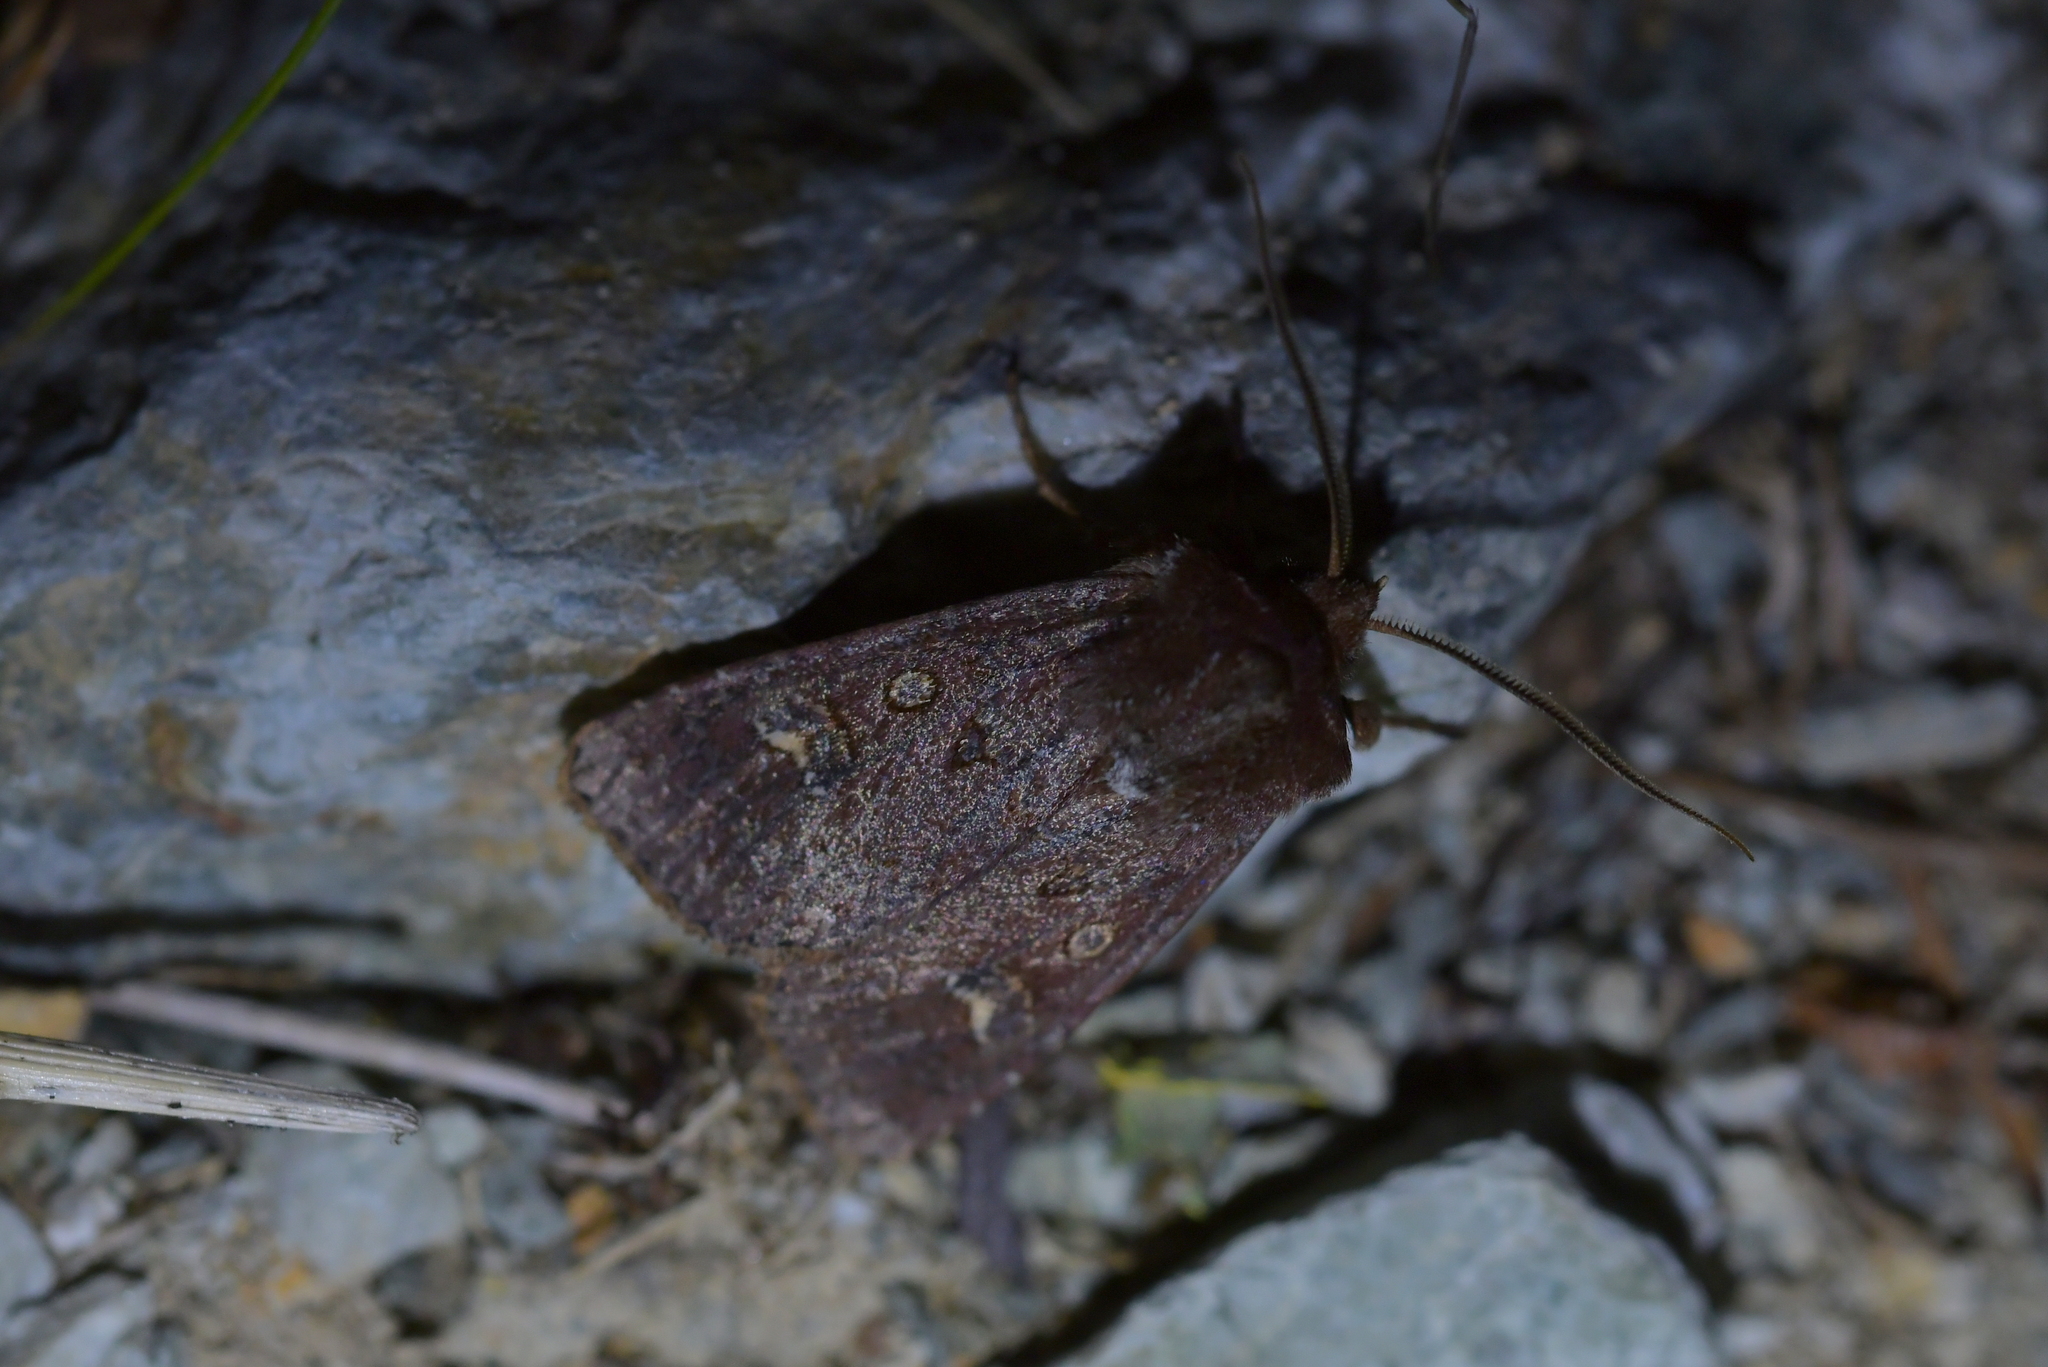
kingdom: Animalia
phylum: Arthropoda
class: Insecta
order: Lepidoptera
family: Noctuidae
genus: Ichneutica
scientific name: Ichneutica agorastis
